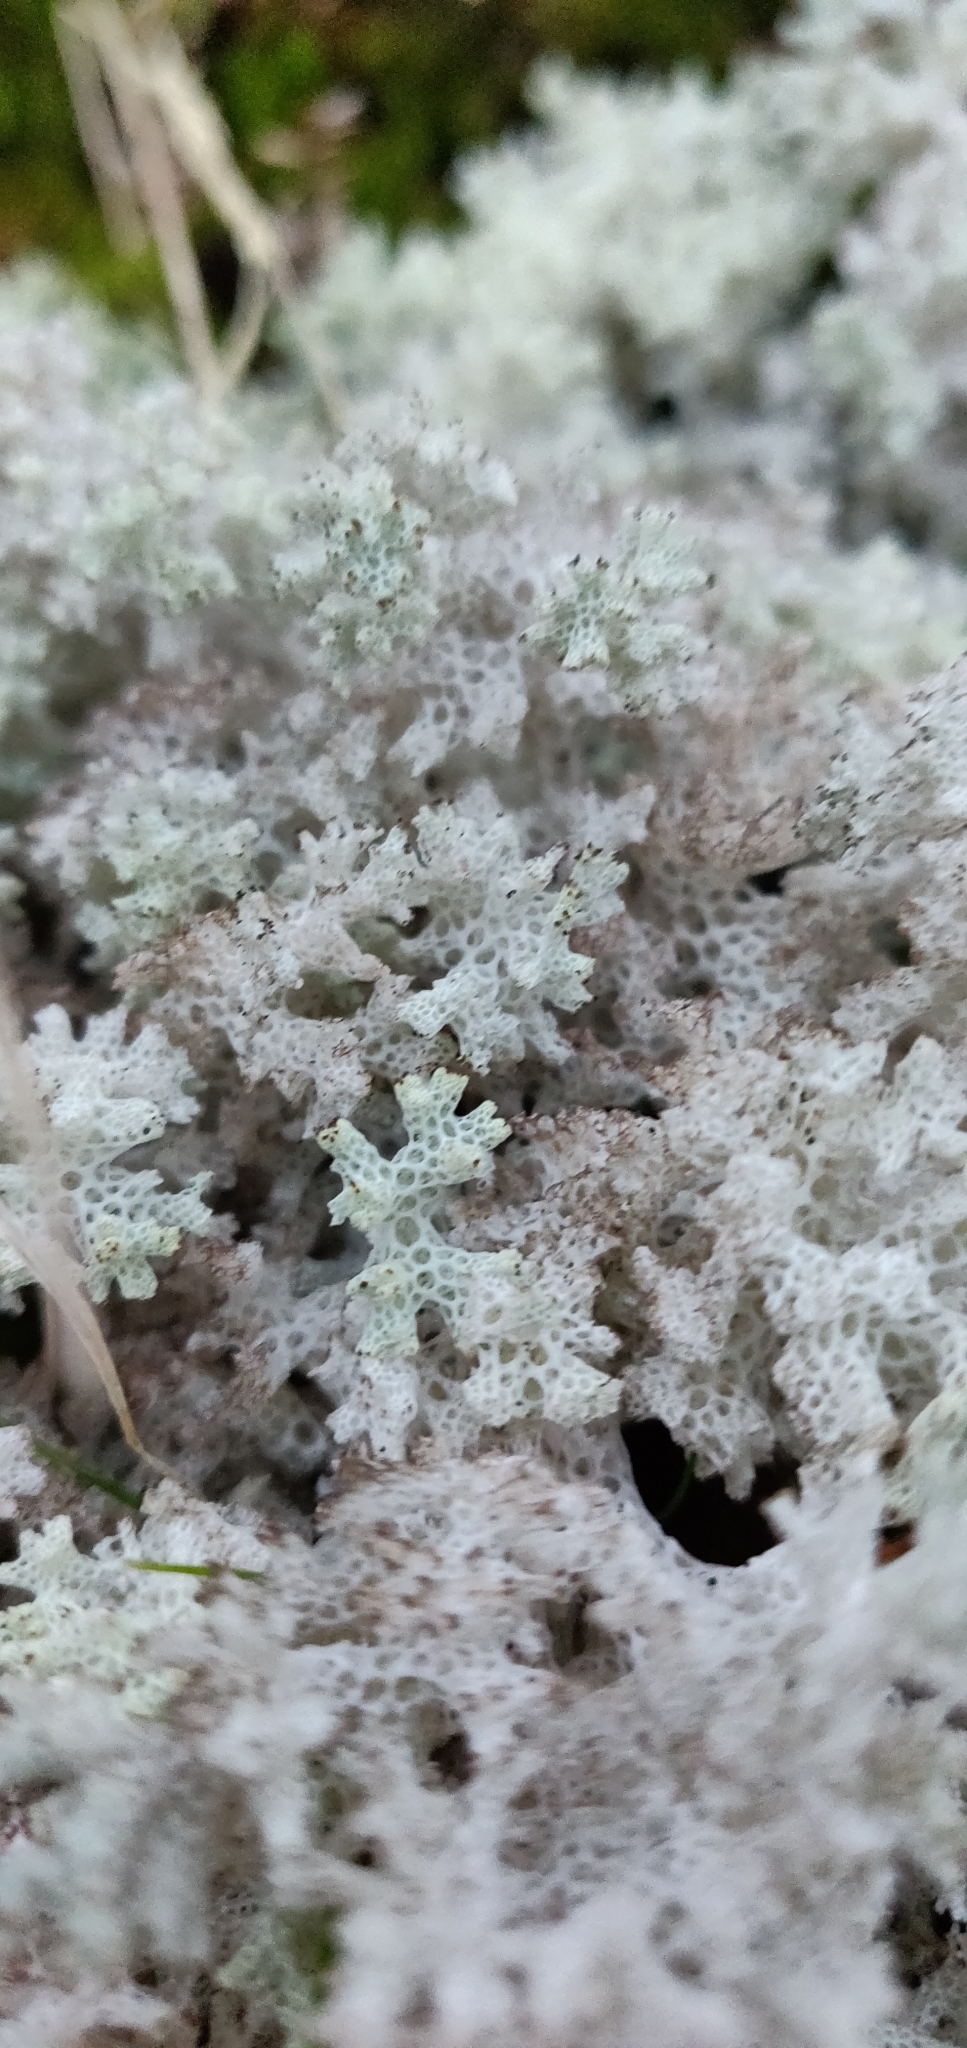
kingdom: Fungi
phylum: Ascomycota
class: Lecanoromycetes
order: Lecanorales
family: Cladoniaceae
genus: Pulchrocladia
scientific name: Pulchrocladia retipora
